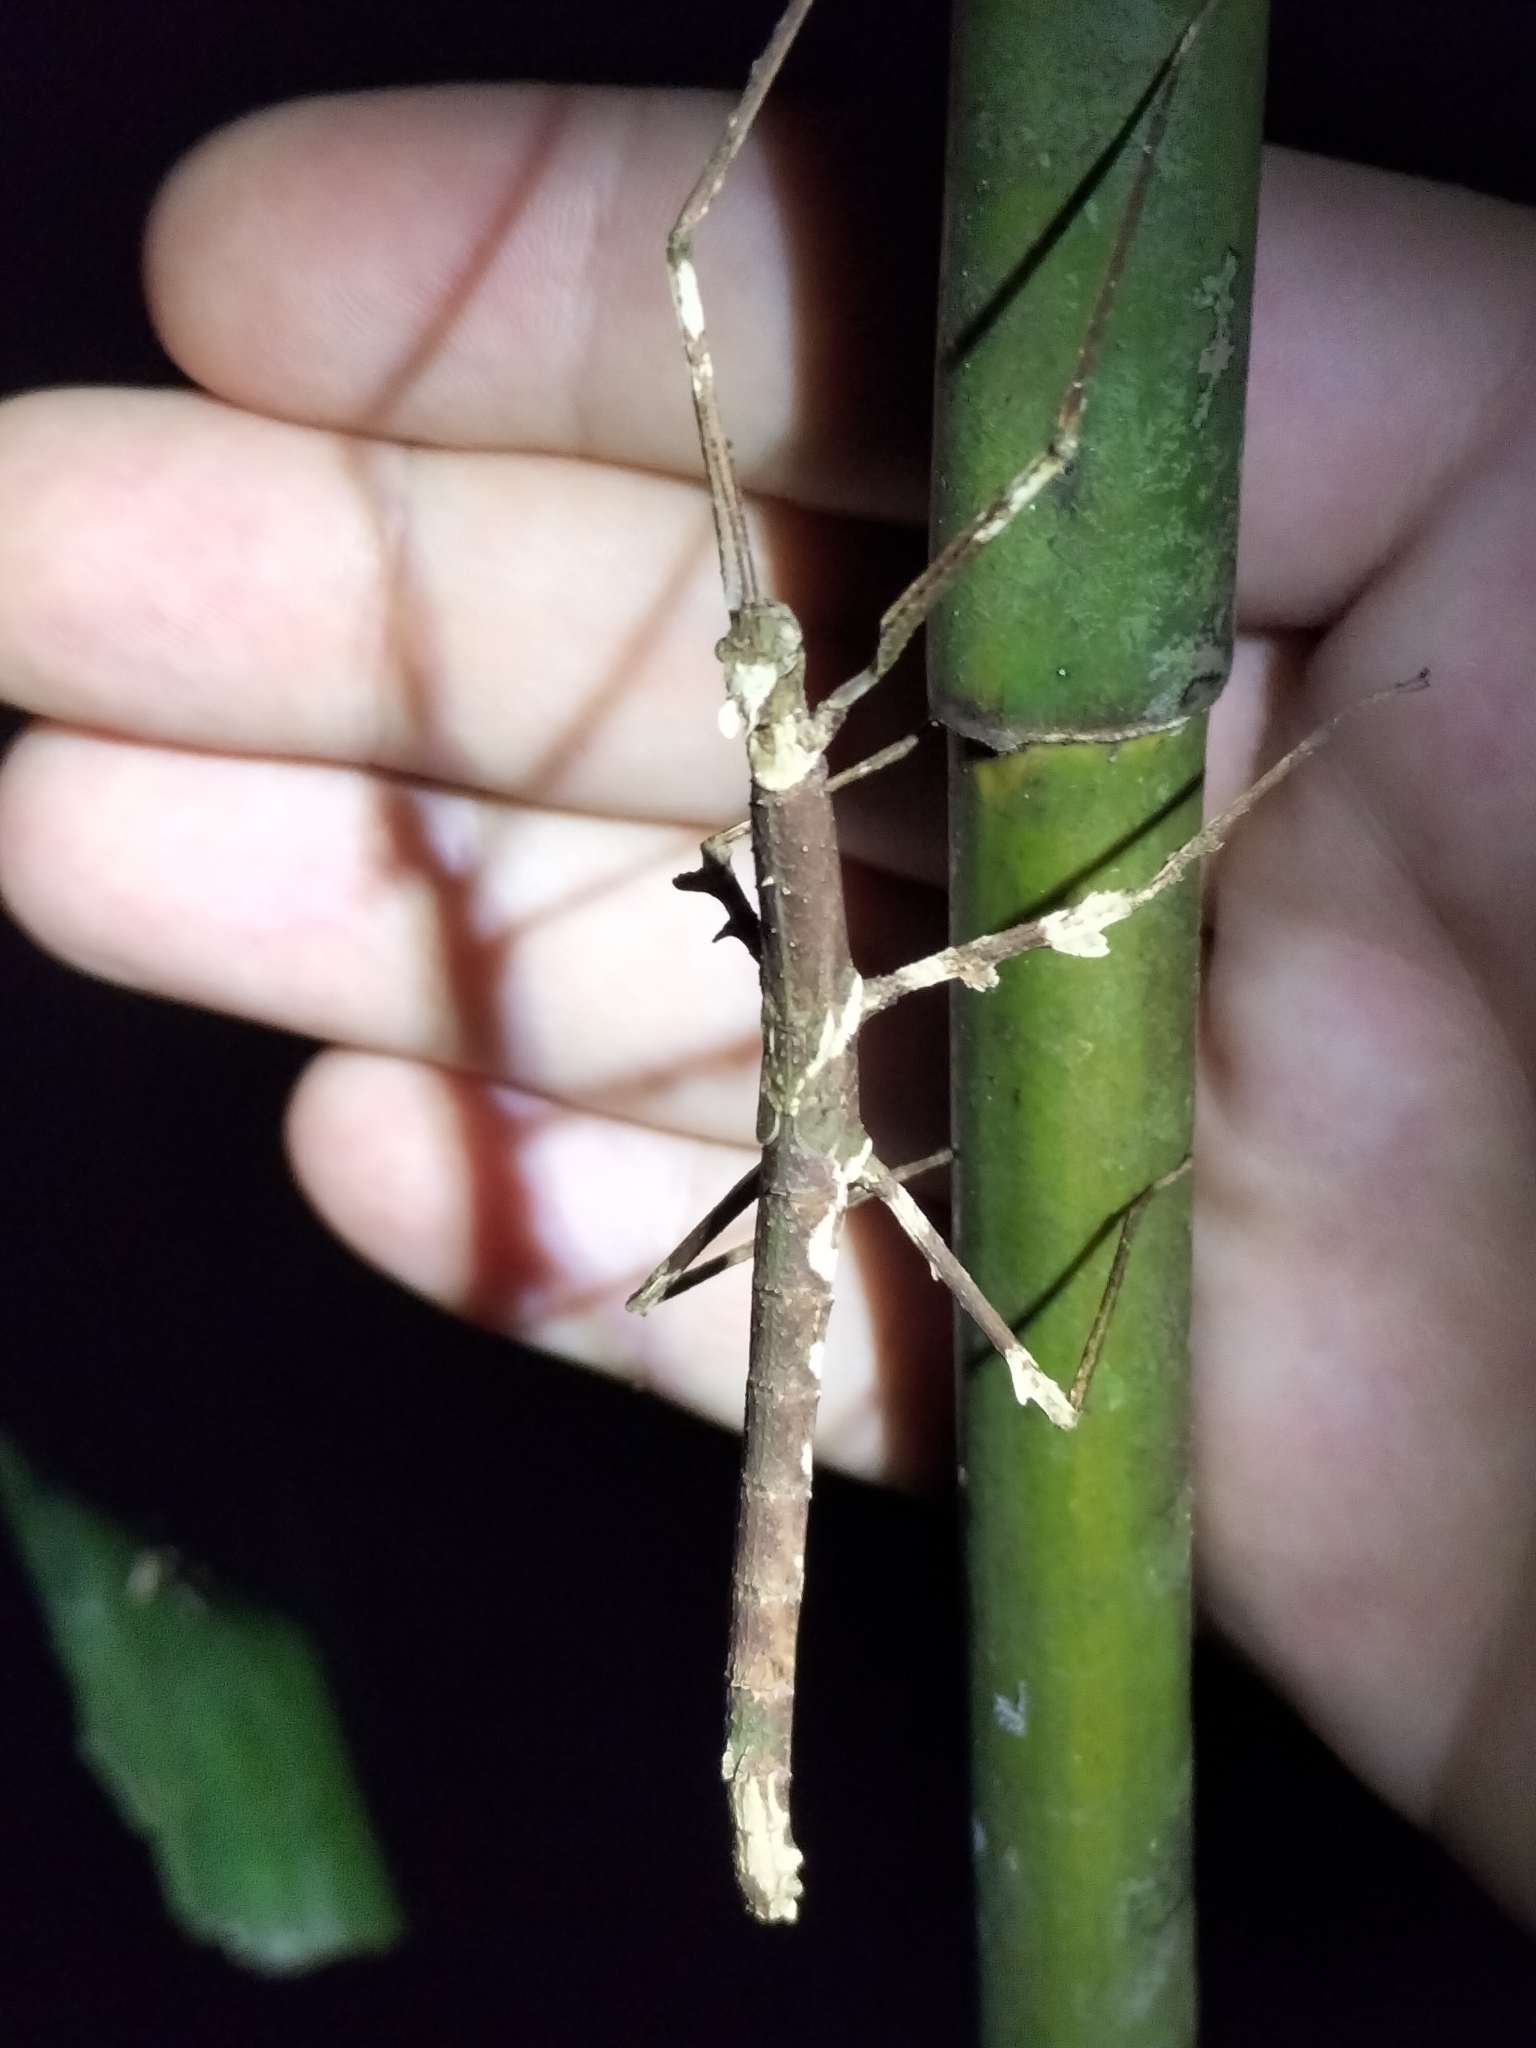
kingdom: Animalia
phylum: Arthropoda
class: Insecta
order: Phasmida
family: Phasmatidae
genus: Onchestus
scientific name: Onchestus rentzi
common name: Rentz's stick-insect
